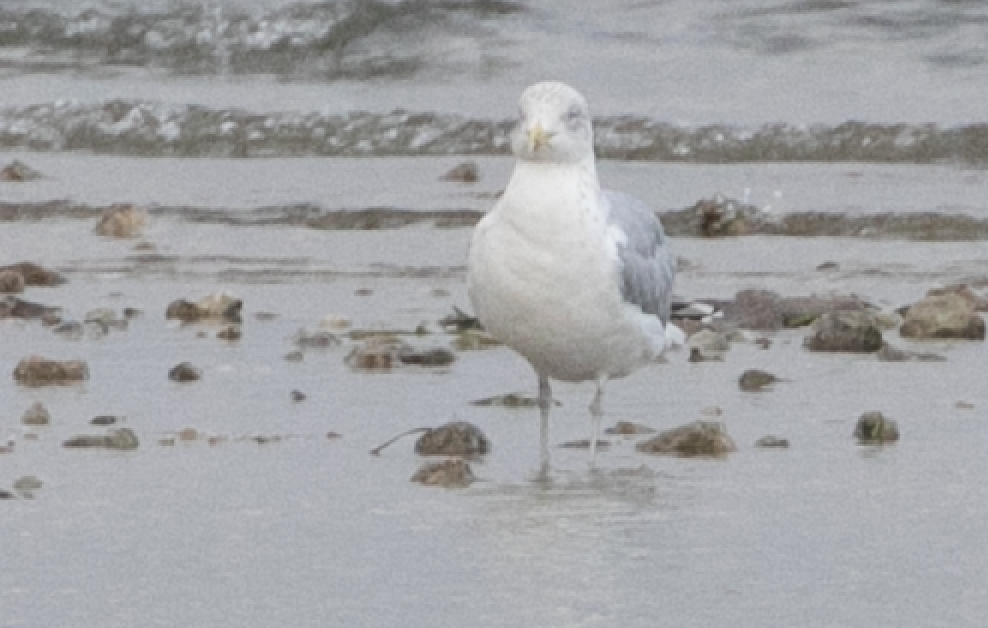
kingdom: Animalia
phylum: Chordata
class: Aves
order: Charadriiformes
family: Laridae
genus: Larus
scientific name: Larus argentatus
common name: Herring gull
